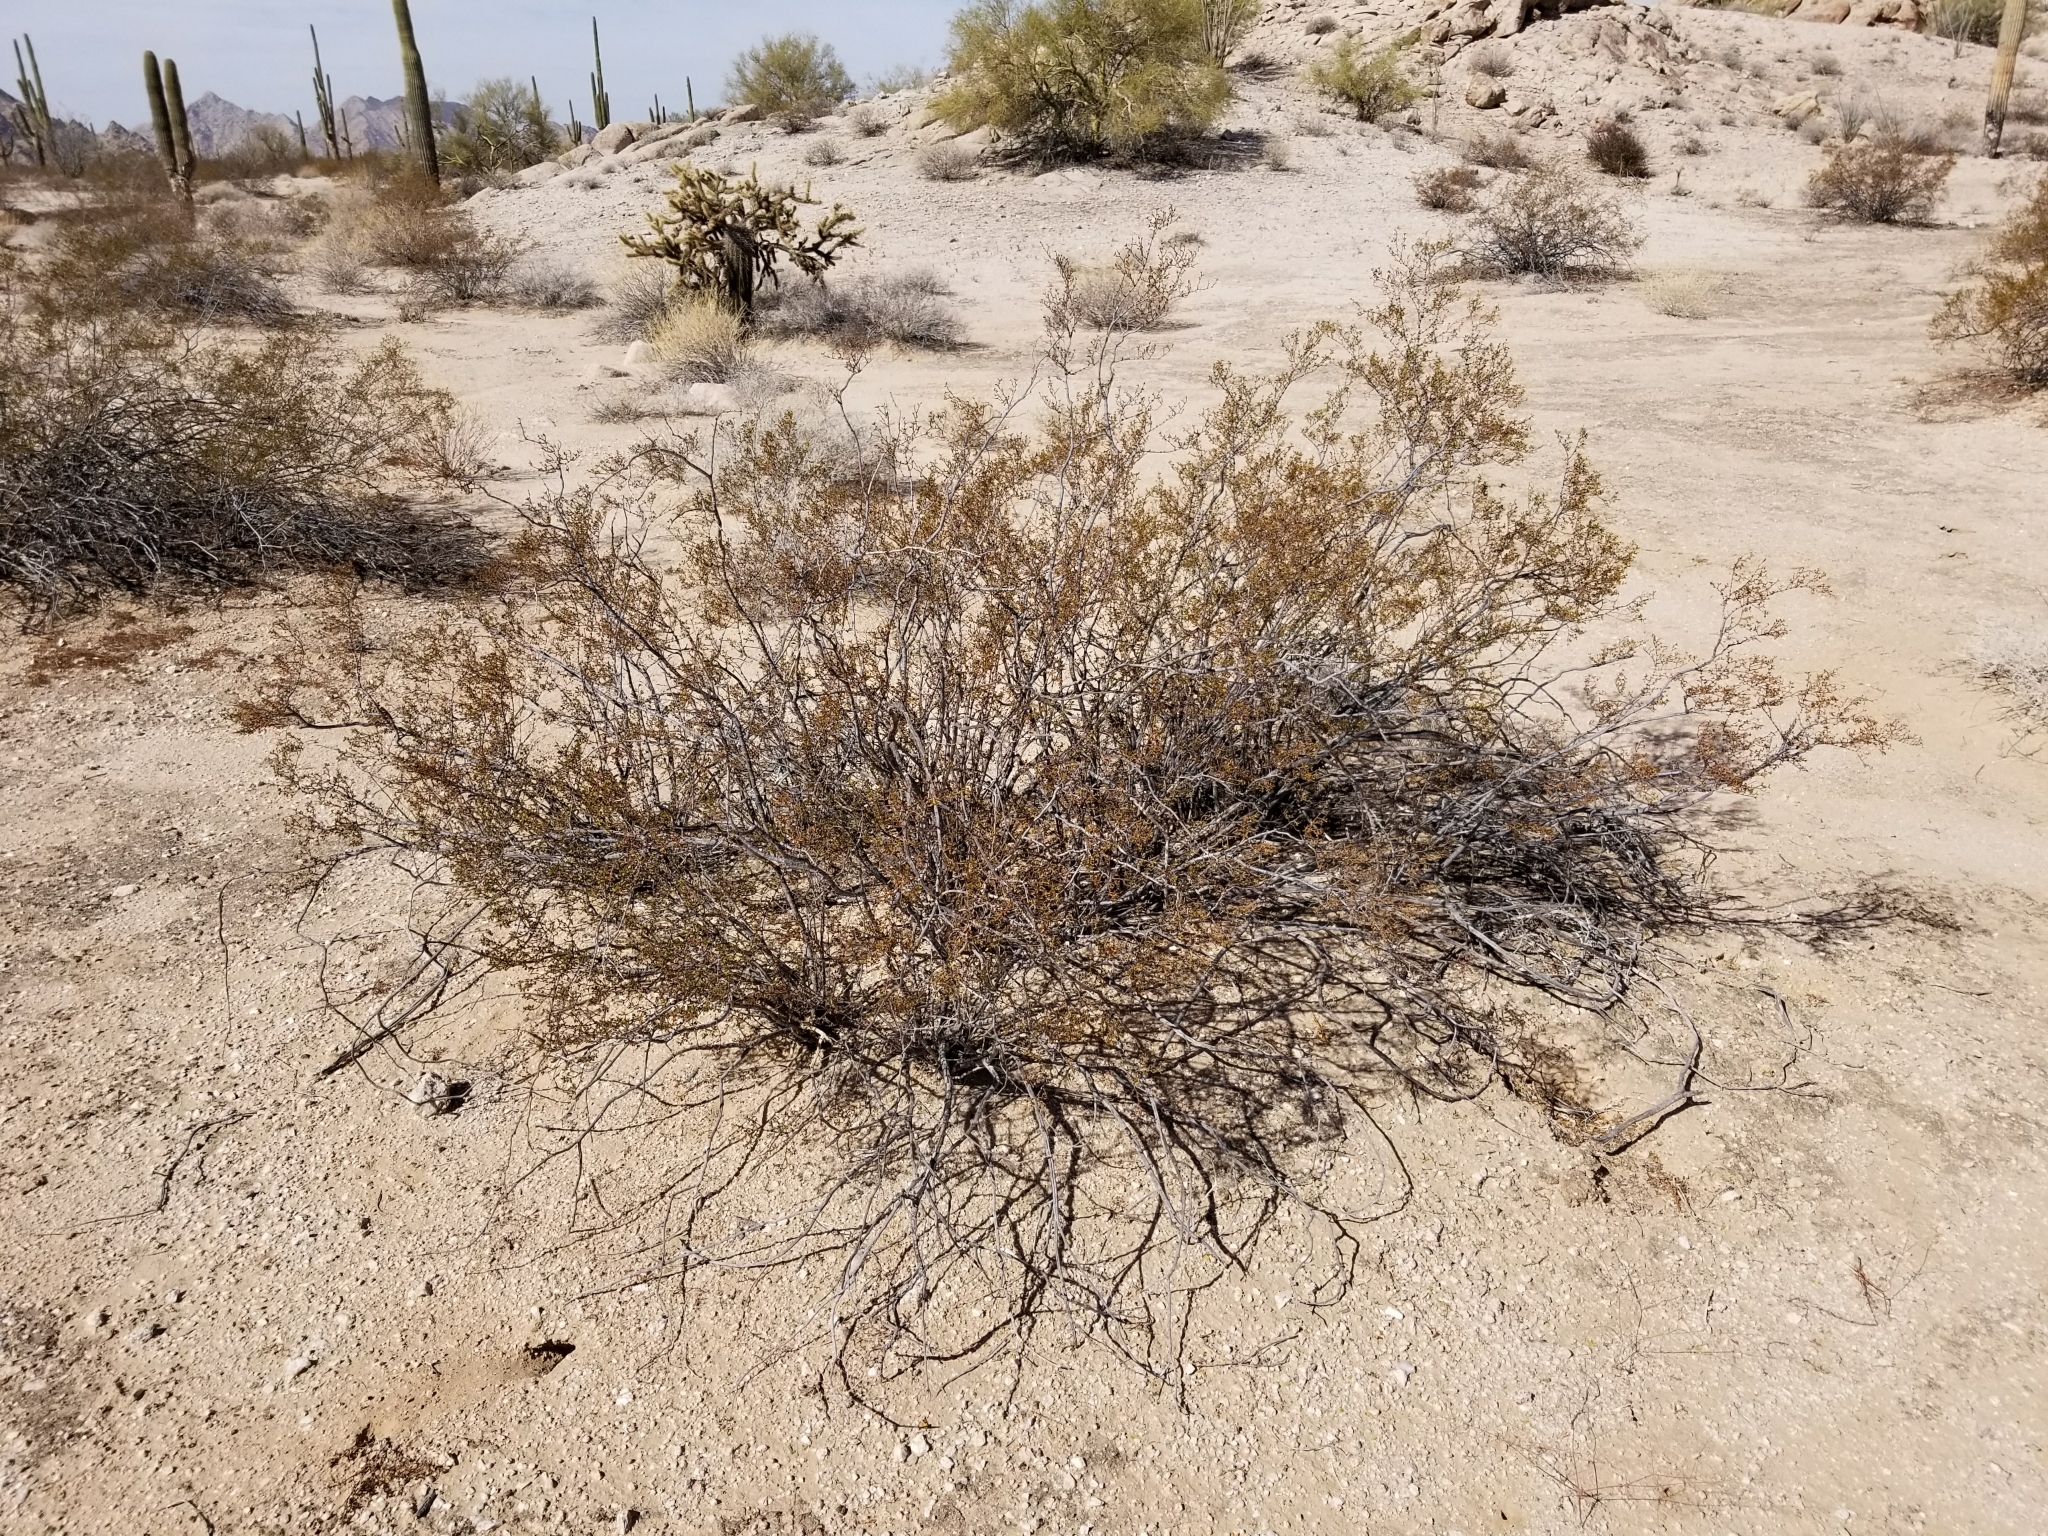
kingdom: Plantae
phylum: Tracheophyta
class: Magnoliopsida
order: Zygophyllales
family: Zygophyllaceae
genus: Larrea
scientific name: Larrea tridentata
